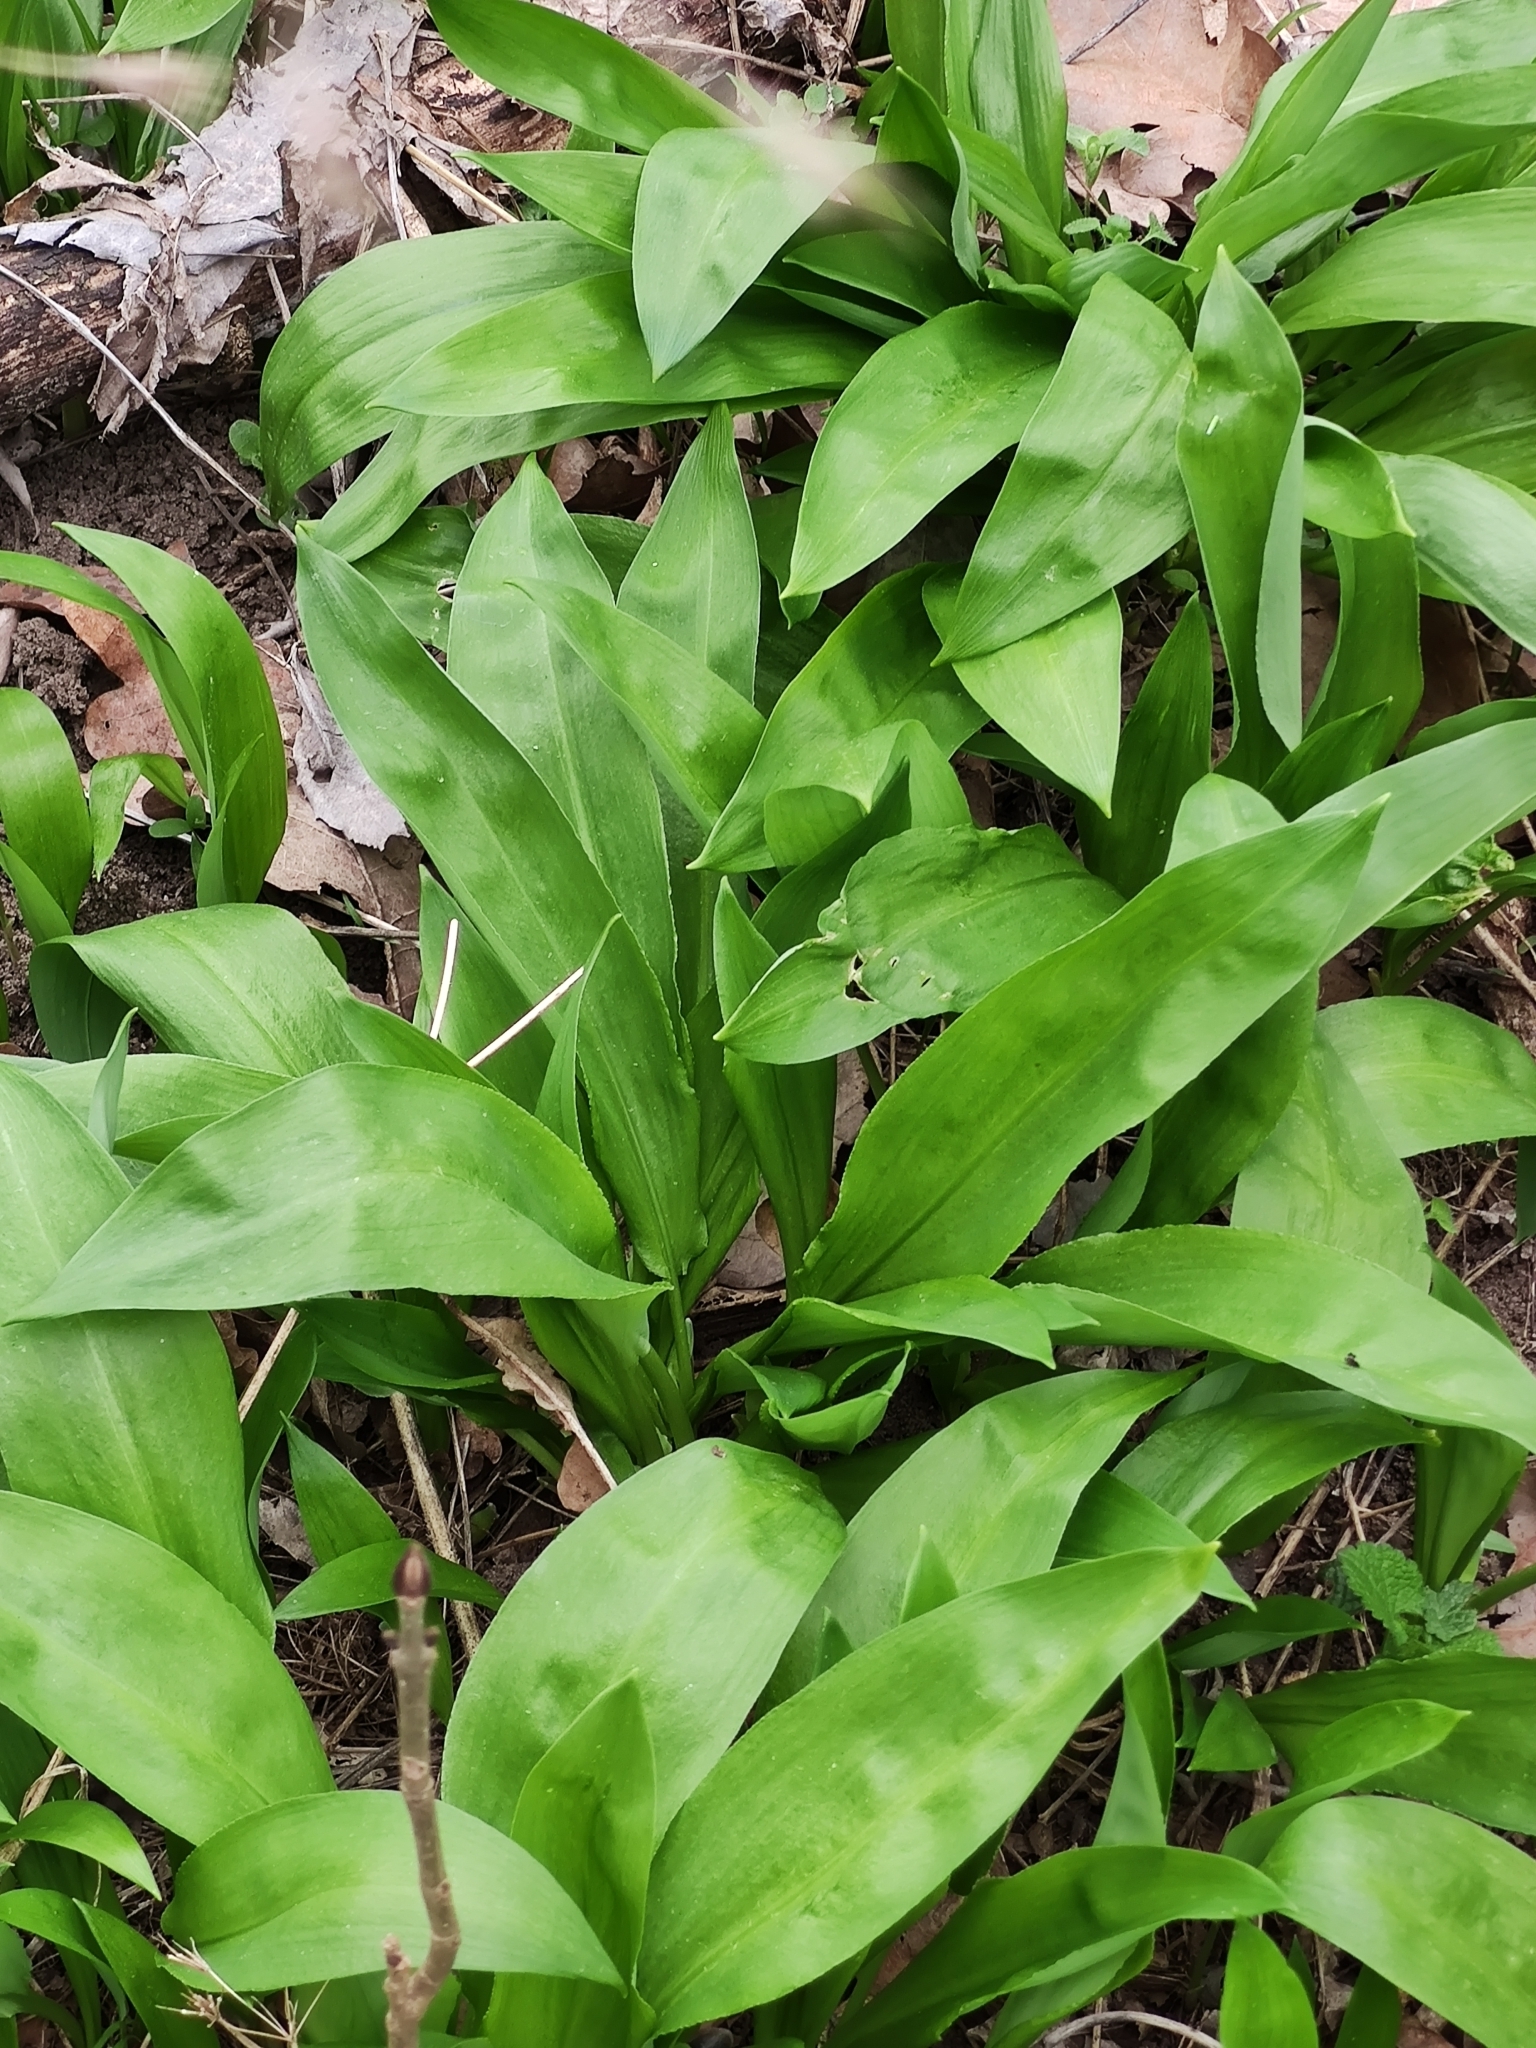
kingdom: Plantae
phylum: Tracheophyta
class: Liliopsida
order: Asparagales
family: Amaryllidaceae
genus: Allium
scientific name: Allium ursinum
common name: Ramsons
